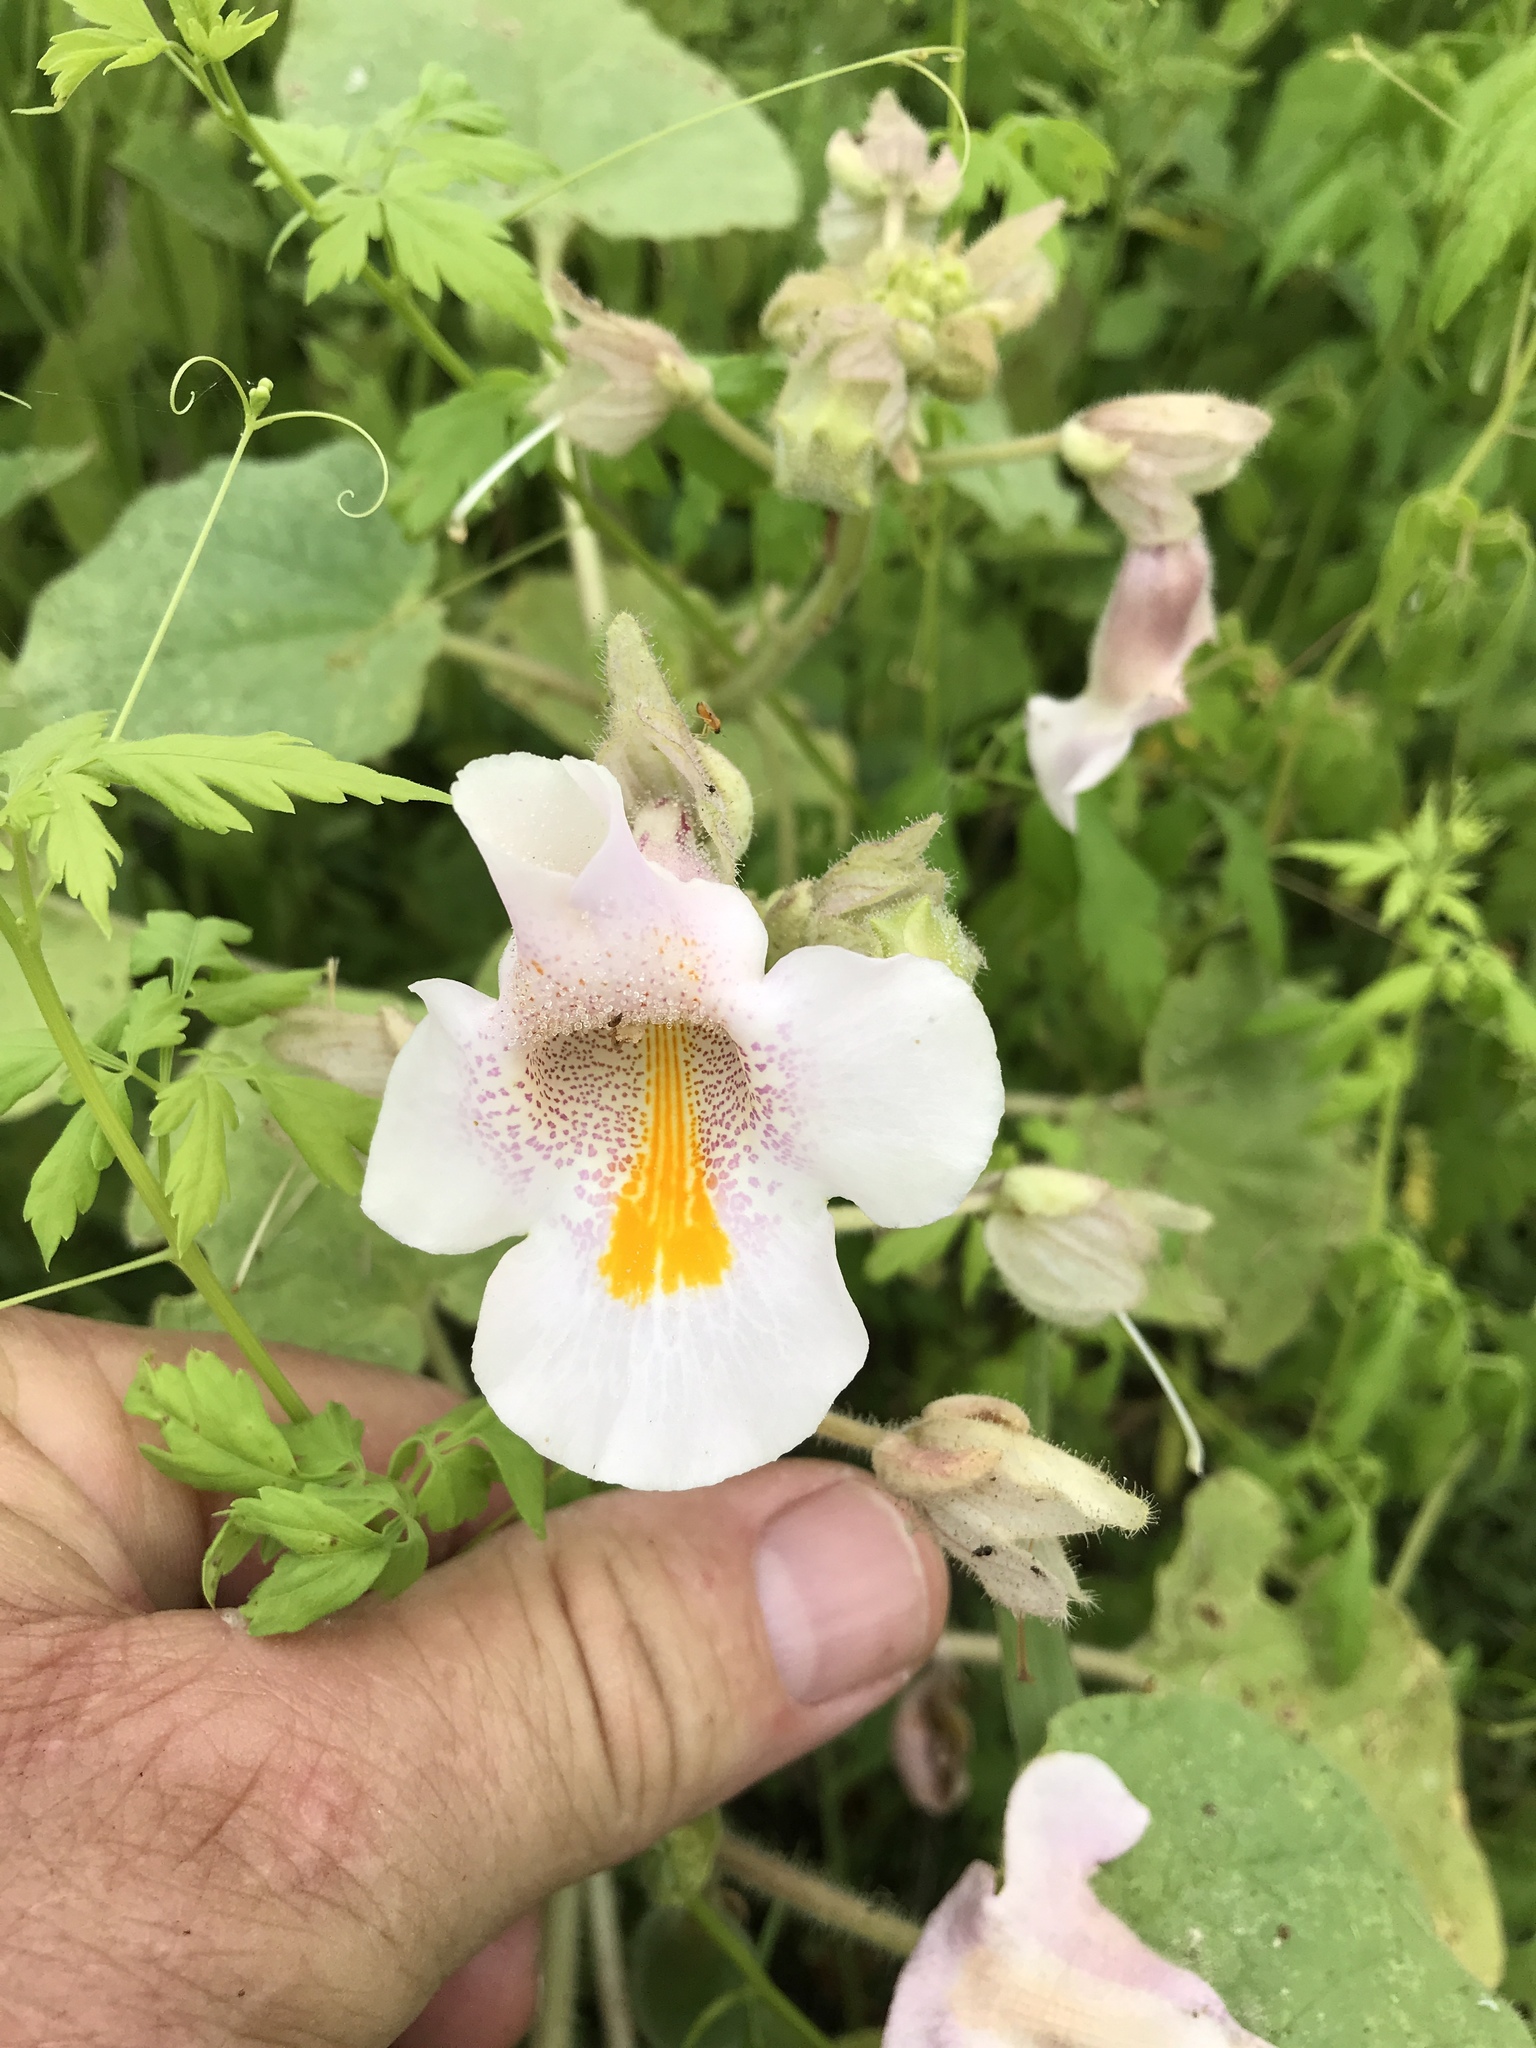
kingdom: Plantae
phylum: Tracheophyta
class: Magnoliopsida
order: Lamiales
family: Martyniaceae
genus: Proboscidea
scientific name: Proboscidea louisianica
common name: Elephant tusks
